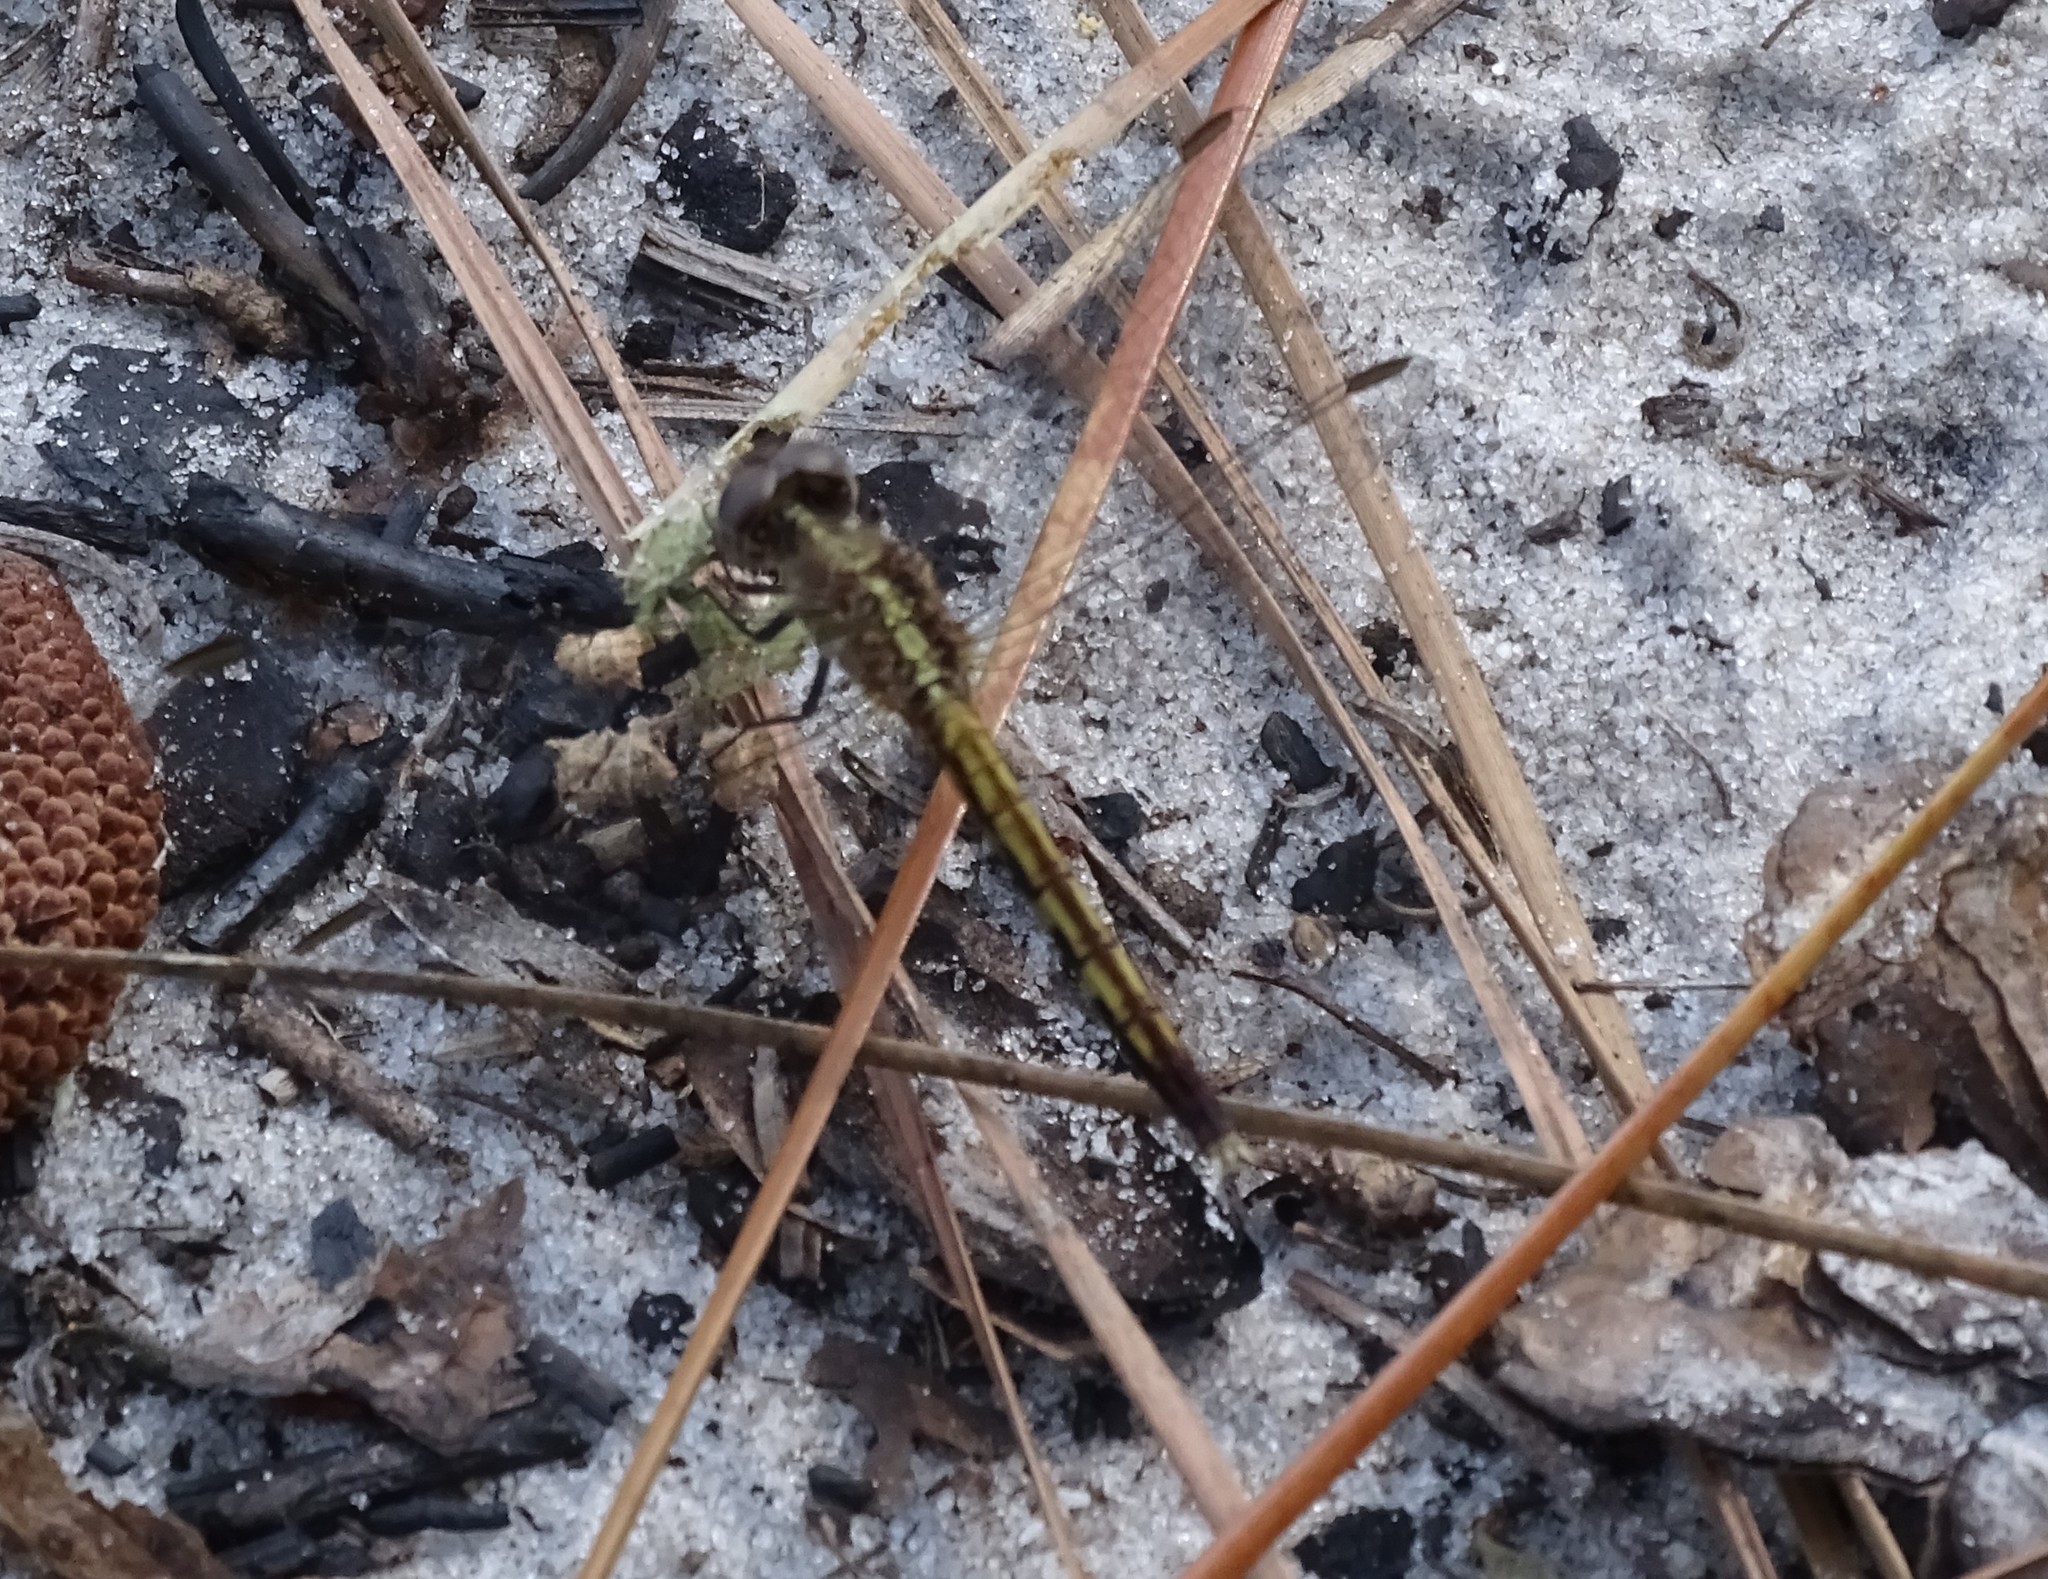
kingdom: Animalia
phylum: Arthropoda
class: Insecta
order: Odonata
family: Libellulidae
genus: Erythrodiplax
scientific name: Erythrodiplax minuscula
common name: Little blue dragonlet
